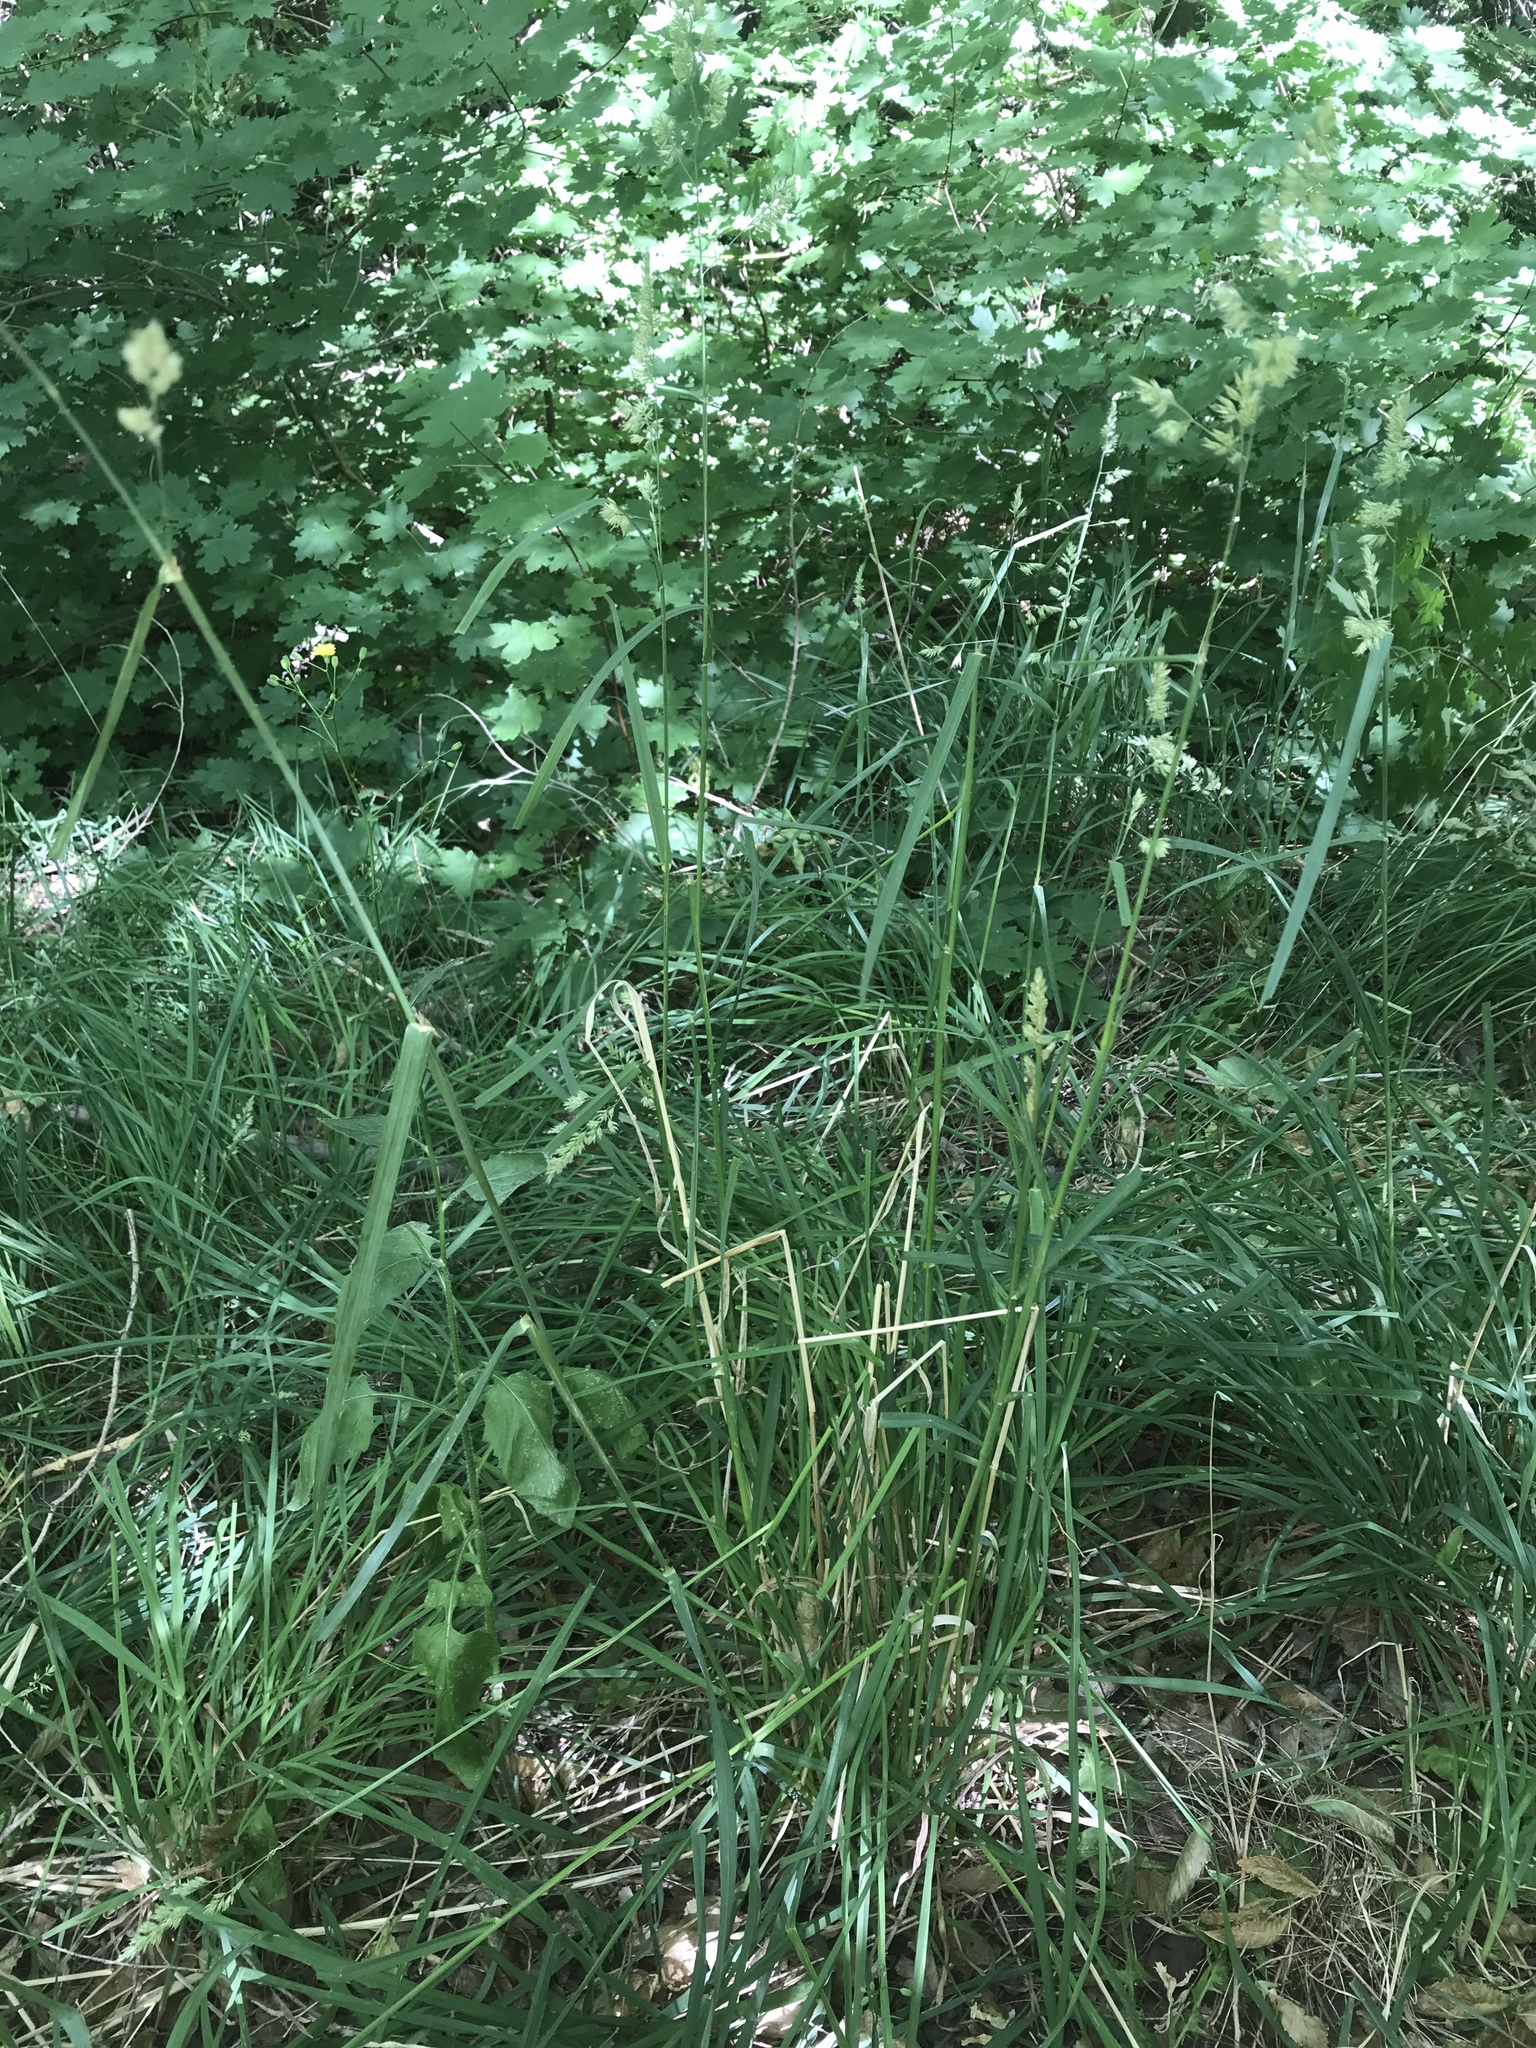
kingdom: Plantae
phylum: Tracheophyta
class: Liliopsida
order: Poales
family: Poaceae
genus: Dactylis
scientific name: Dactylis glomerata
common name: Orchardgrass
